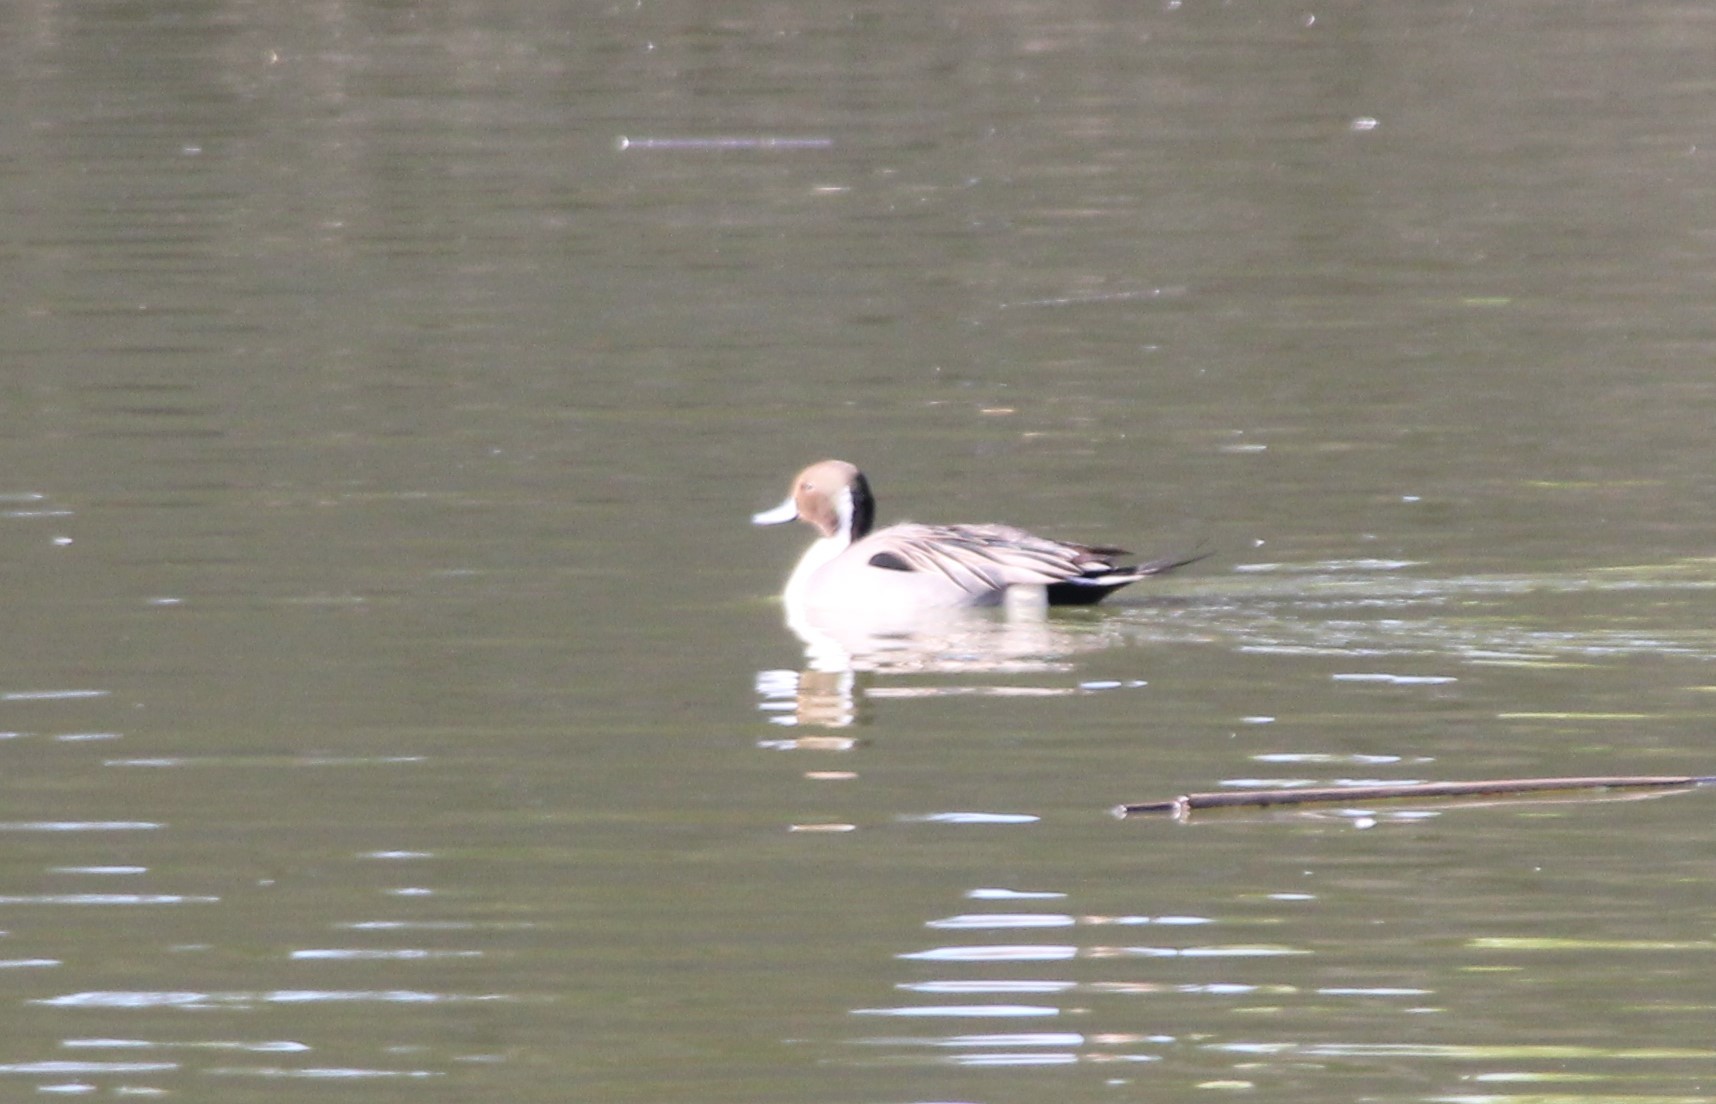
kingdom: Animalia
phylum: Chordata
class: Aves
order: Anseriformes
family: Anatidae
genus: Anas
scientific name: Anas acuta
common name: Northern pintail
